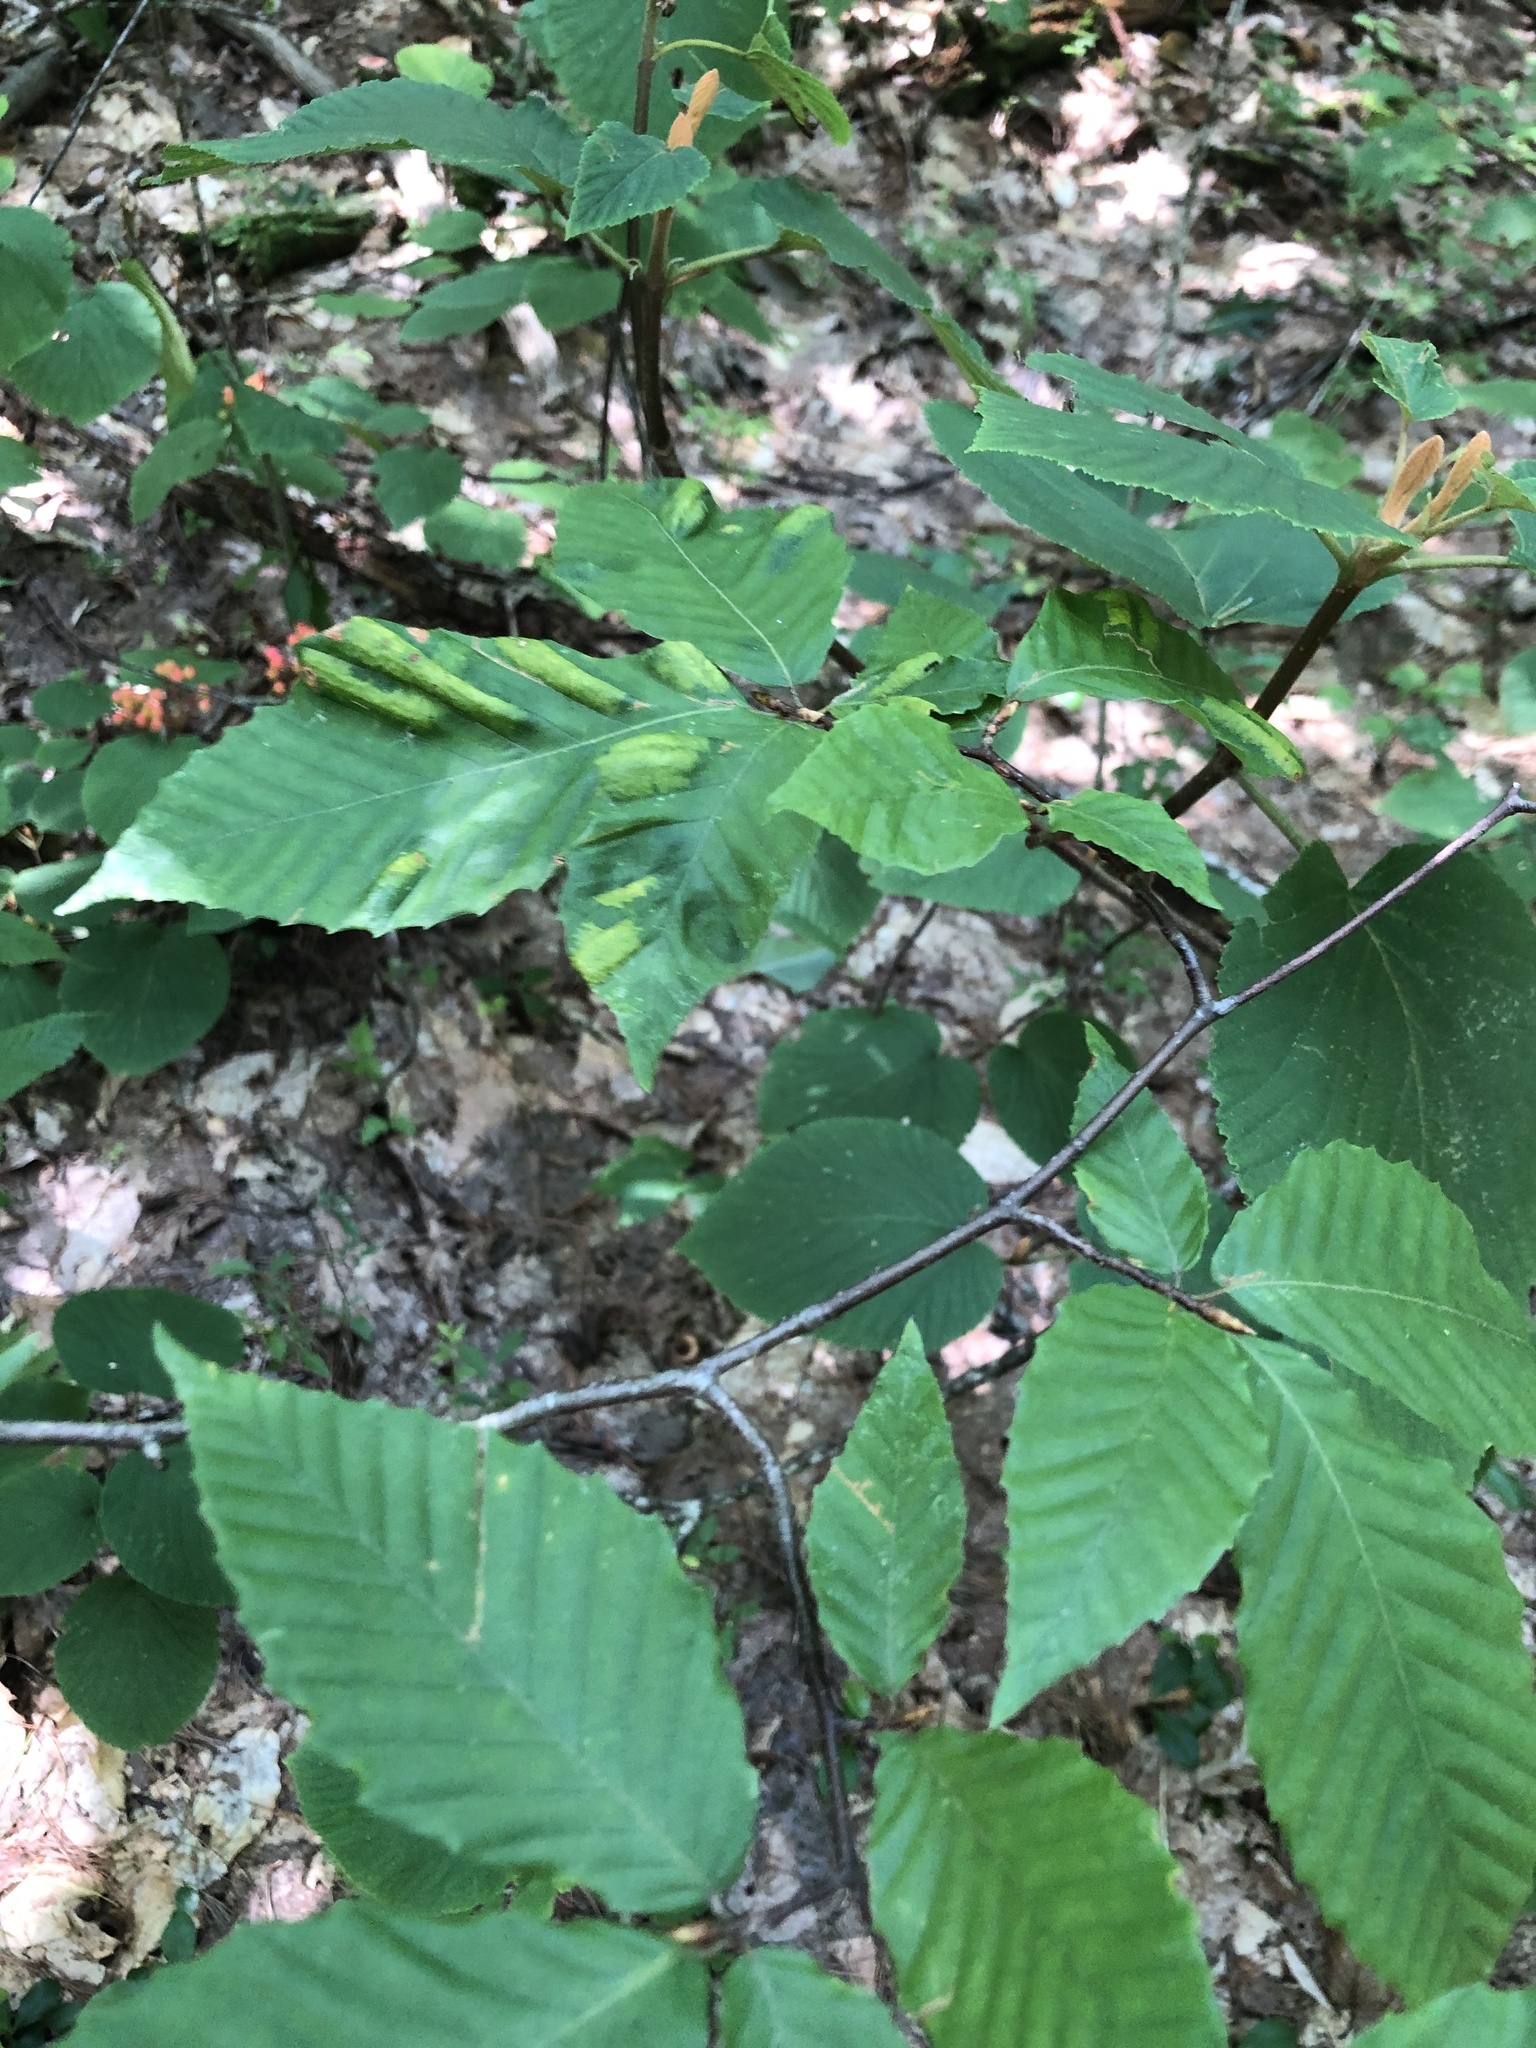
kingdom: Plantae
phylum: Tracheophyta
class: Magnoliopsida
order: Fagales
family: Fagaceae
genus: Fagus
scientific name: Fagus grandifolia
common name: American beech
